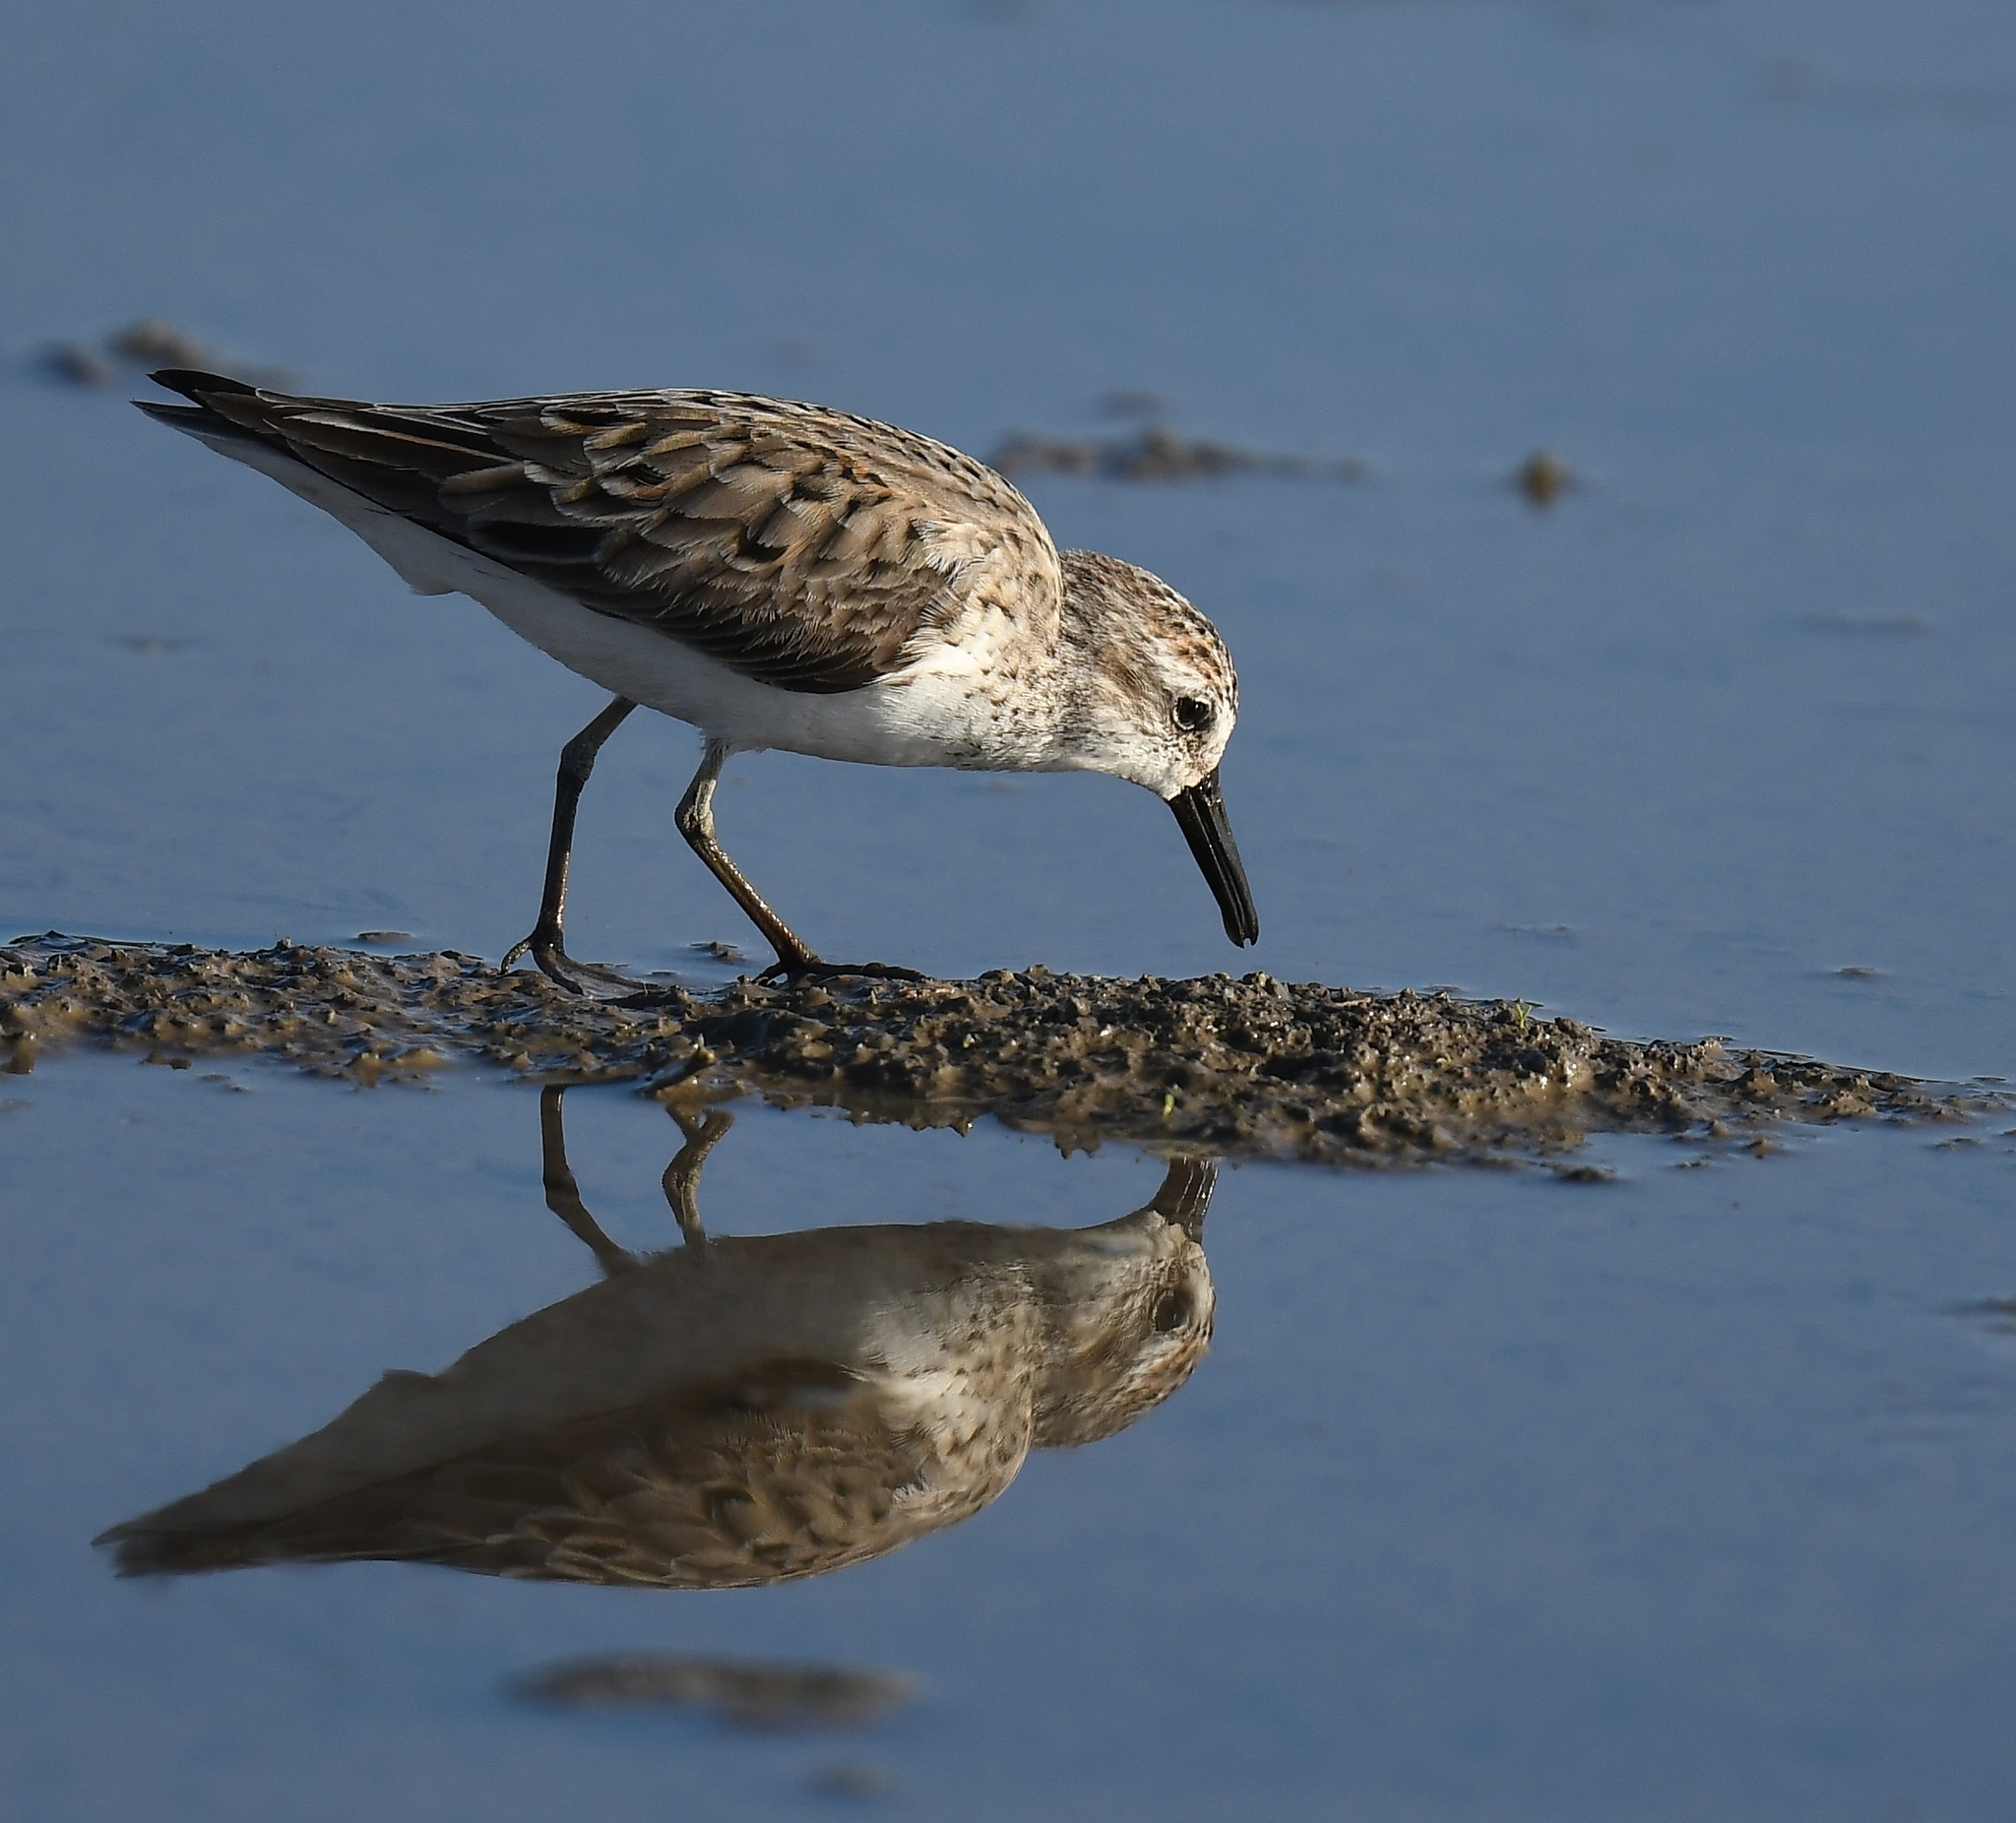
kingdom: Animalia
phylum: Chordata
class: Aves
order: Charadriiformes
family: Scolopacidae
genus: Calidris
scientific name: Calidris pusilla
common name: Semipalmated sandpiper
